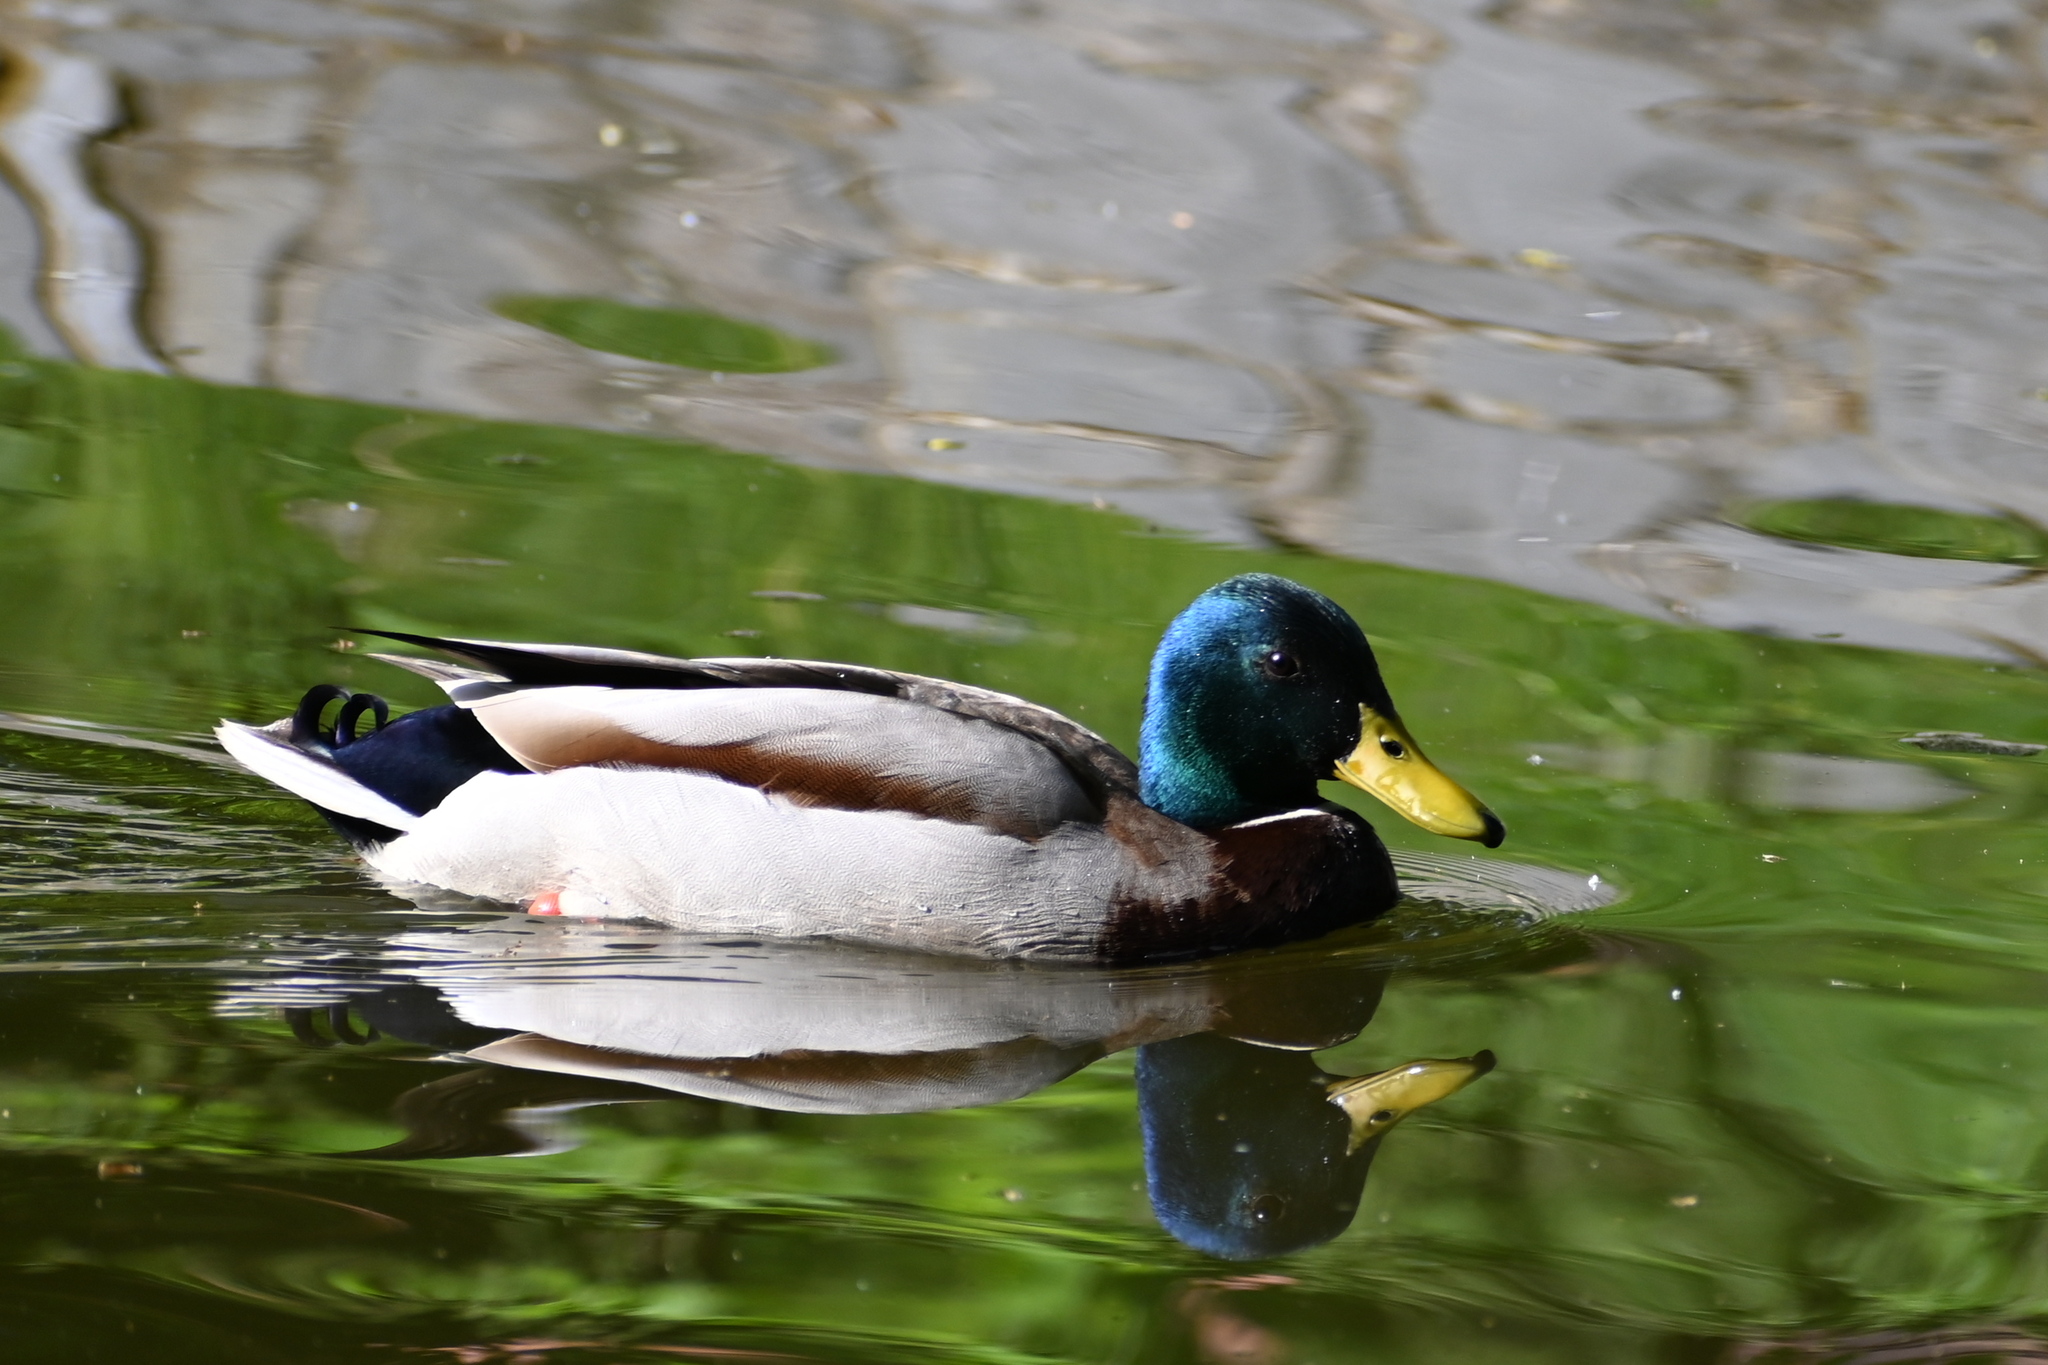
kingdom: Animalia
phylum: Chordata
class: Aves
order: Anseriformes
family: Anatidae
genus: Anas
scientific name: Anas platyrhynchos
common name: Mallard
